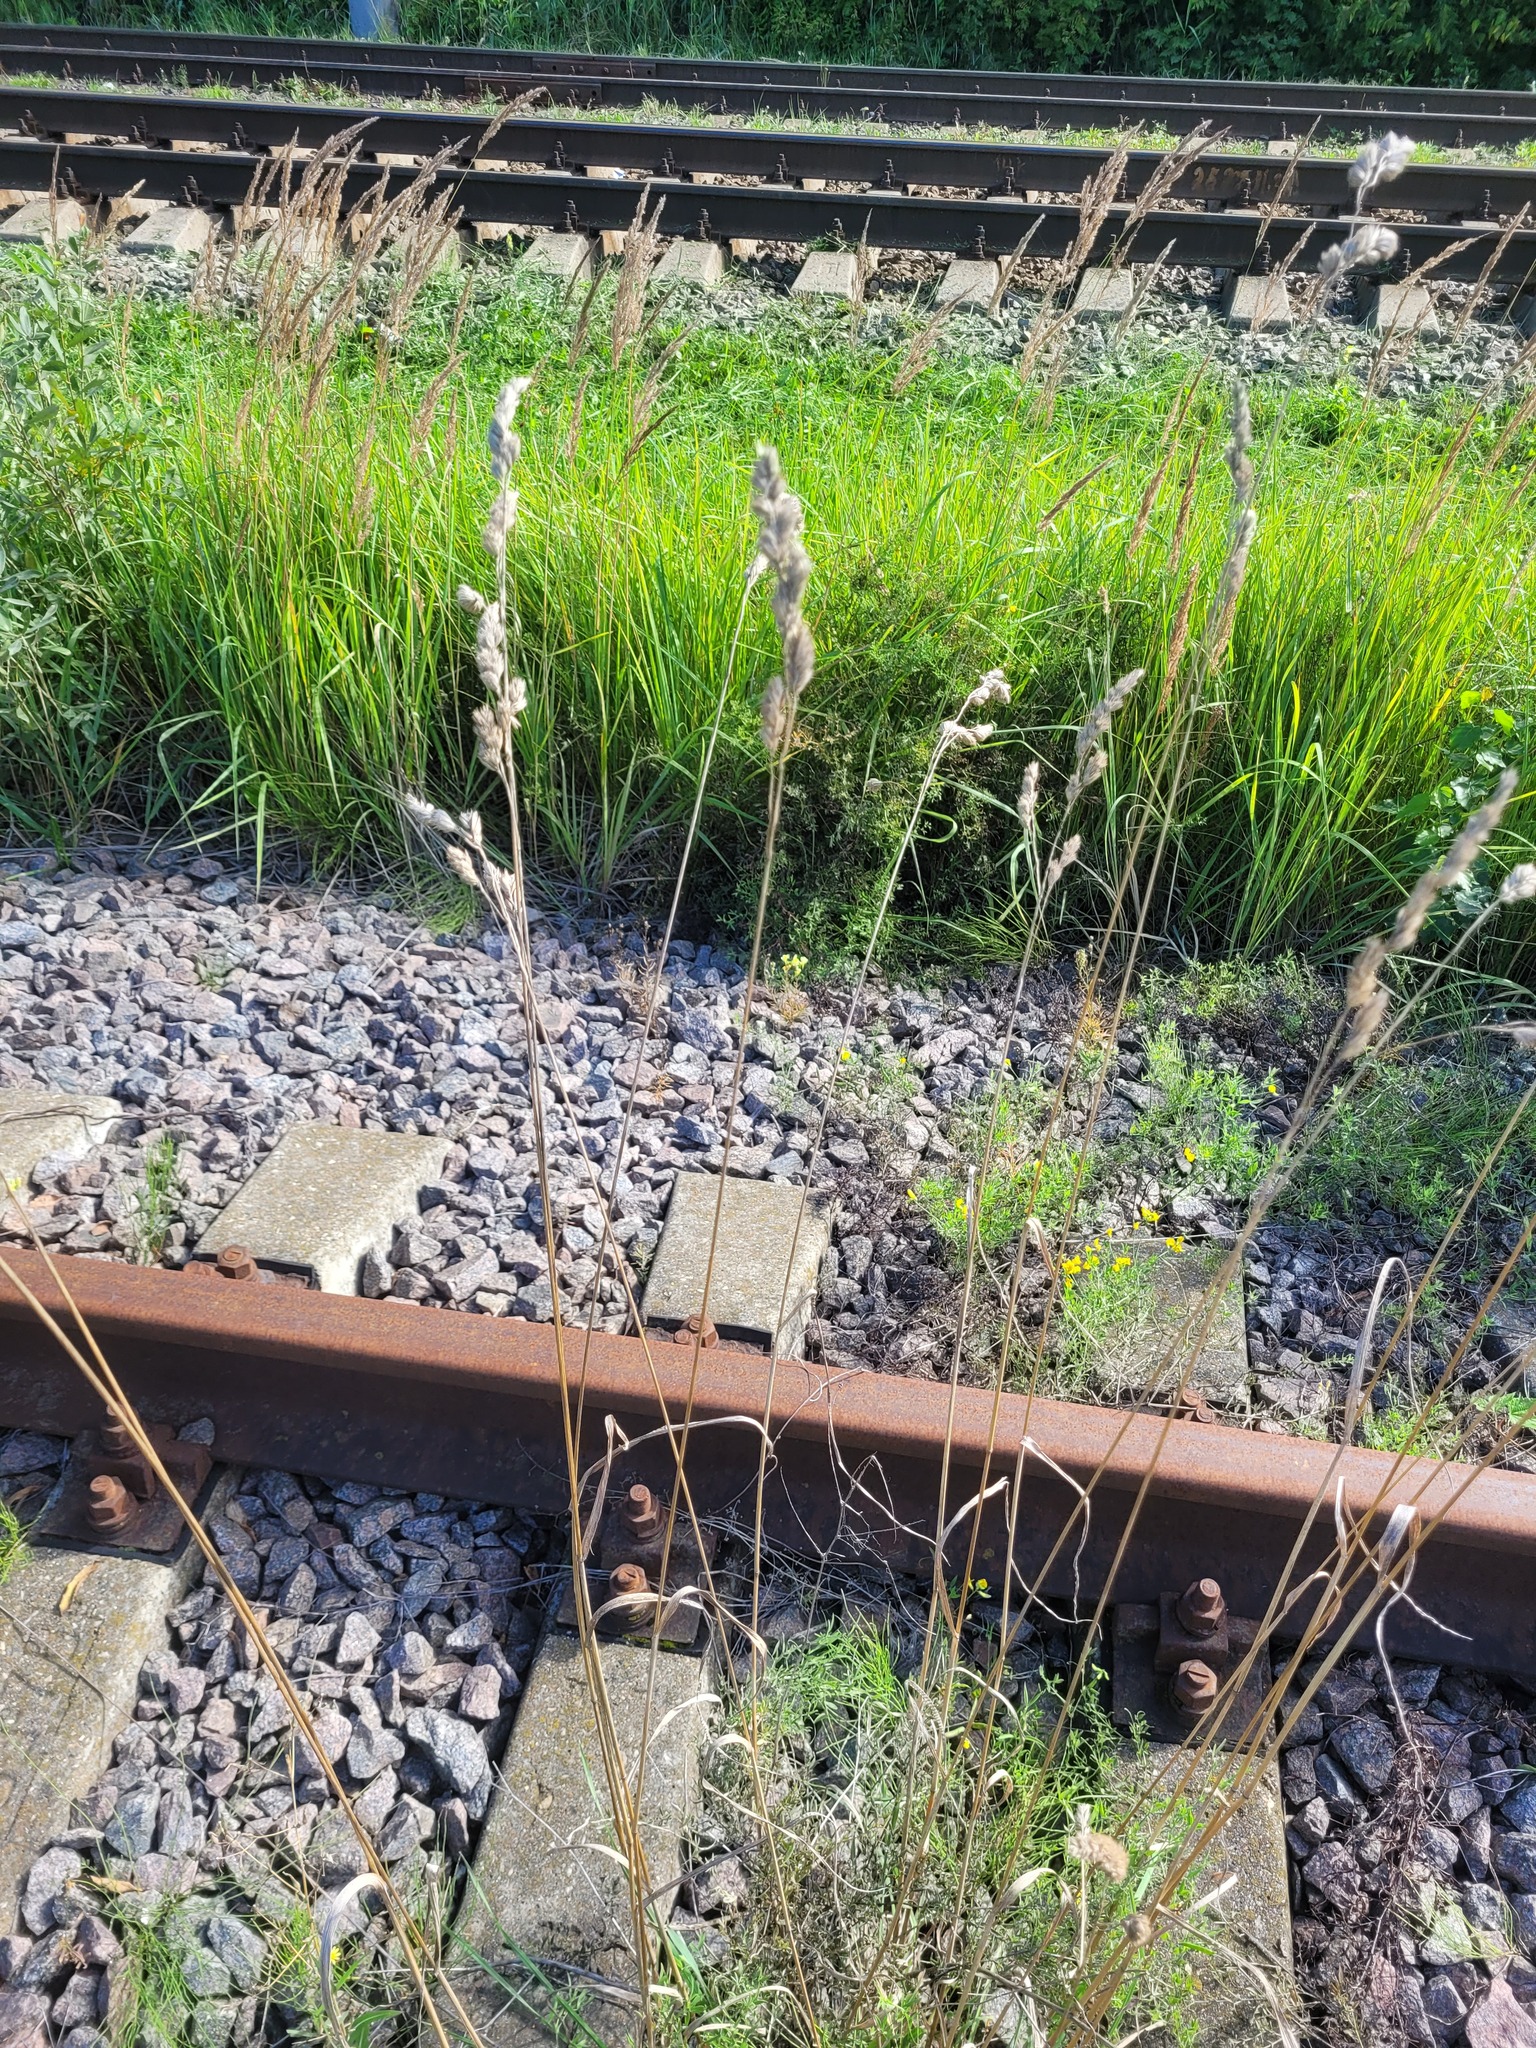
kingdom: Plantae
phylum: Tracheophyta
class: Liliopsida
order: Poales
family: Poaceae
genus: Dactylis
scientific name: Dactylis glomerata
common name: Orchardgrass
